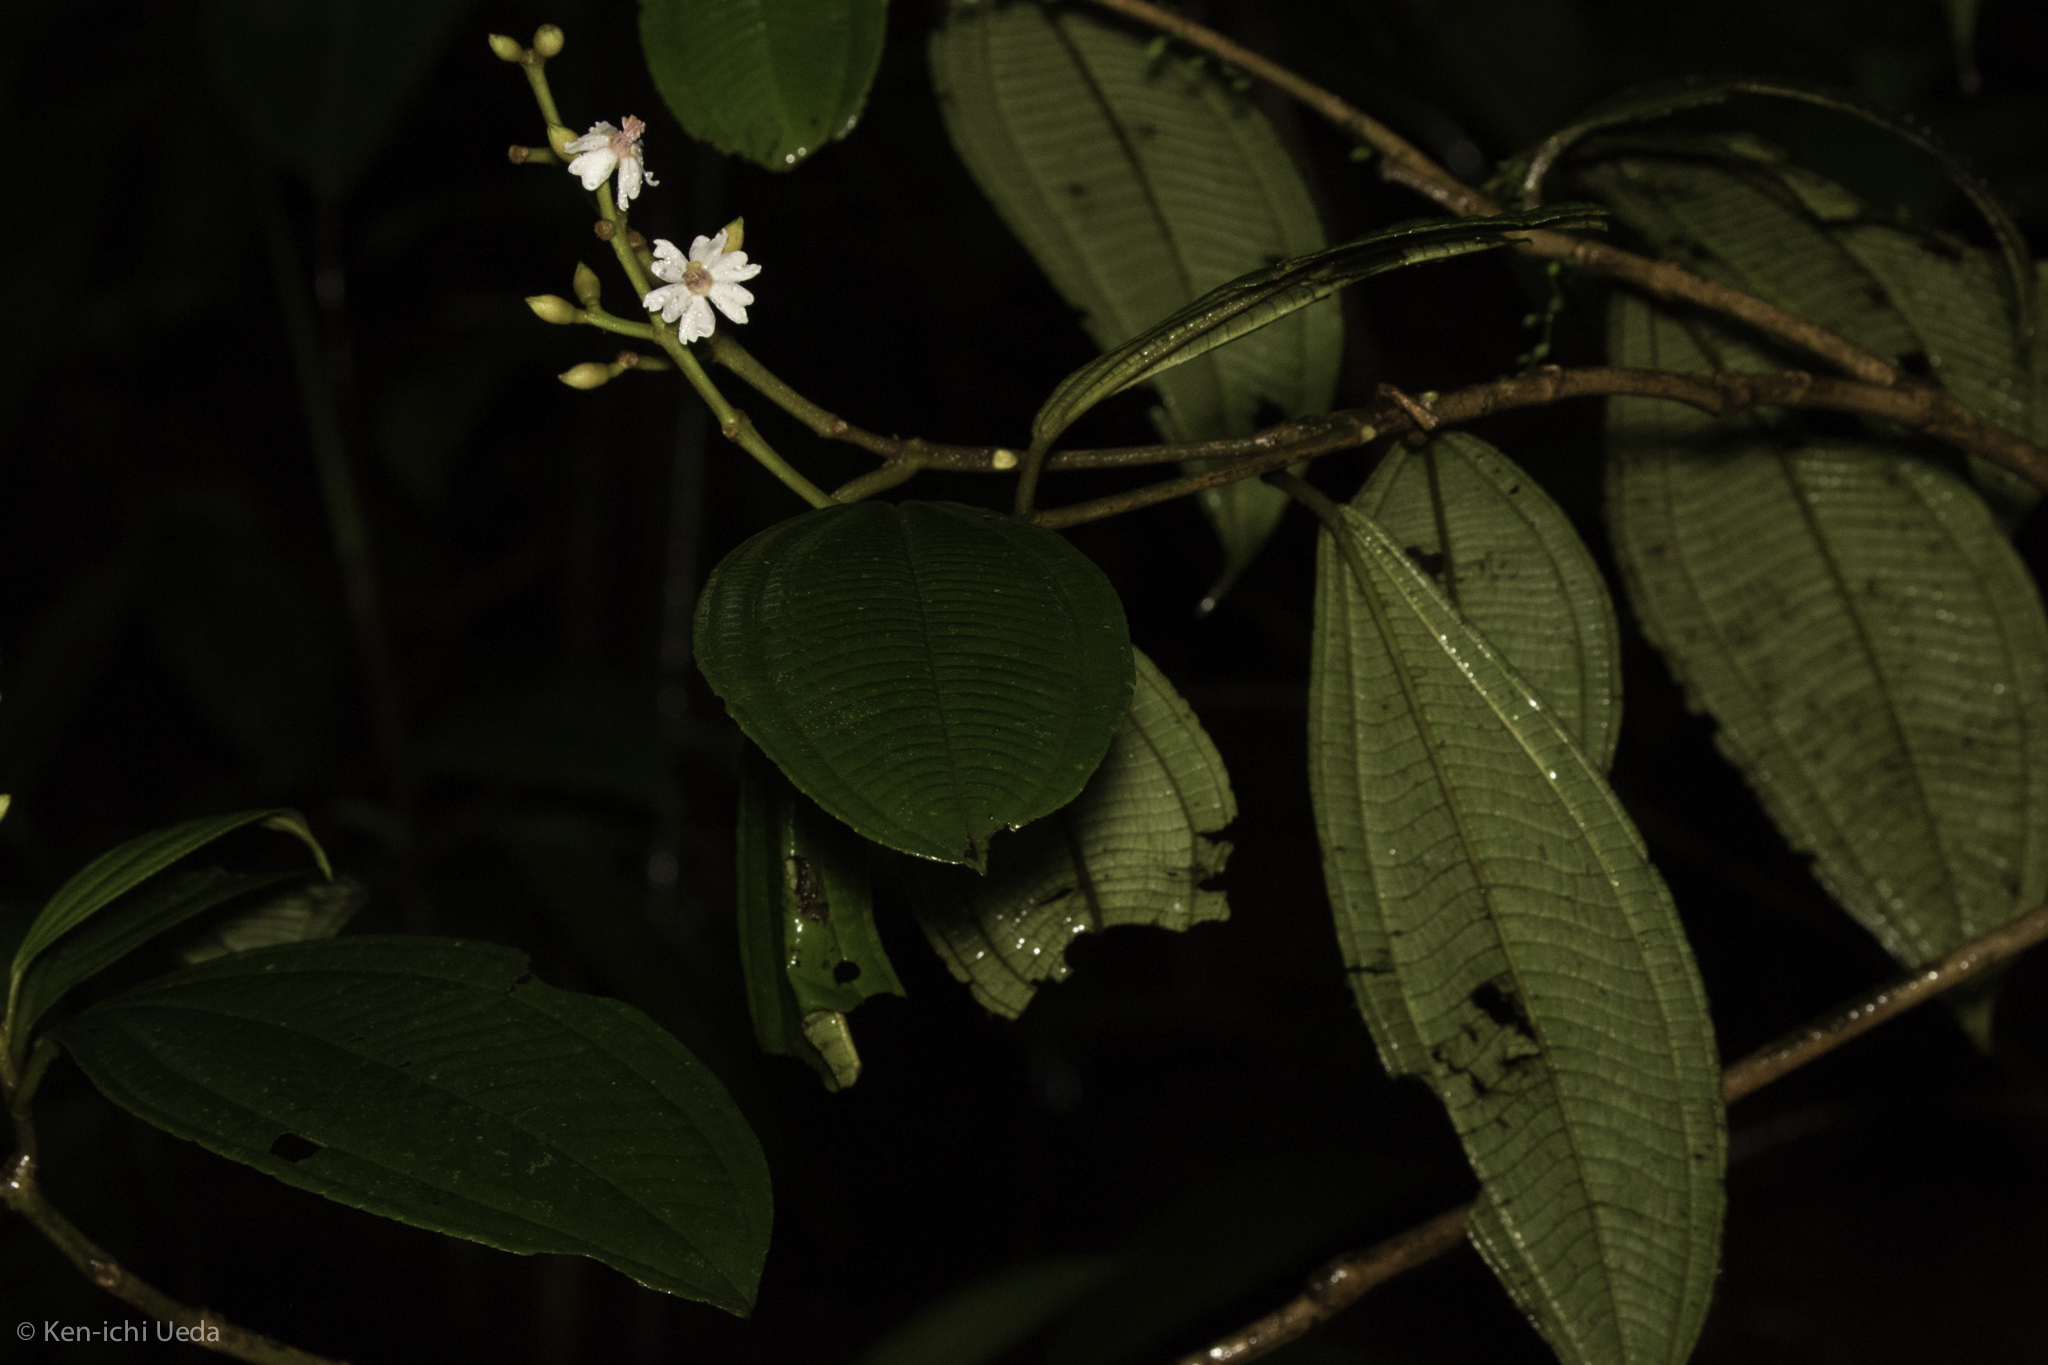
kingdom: Plantae
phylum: Tracheophyta
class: Magnoliopsida
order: Myrtales
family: Melastomataceae
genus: Miconia
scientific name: Miconia conorufescens
